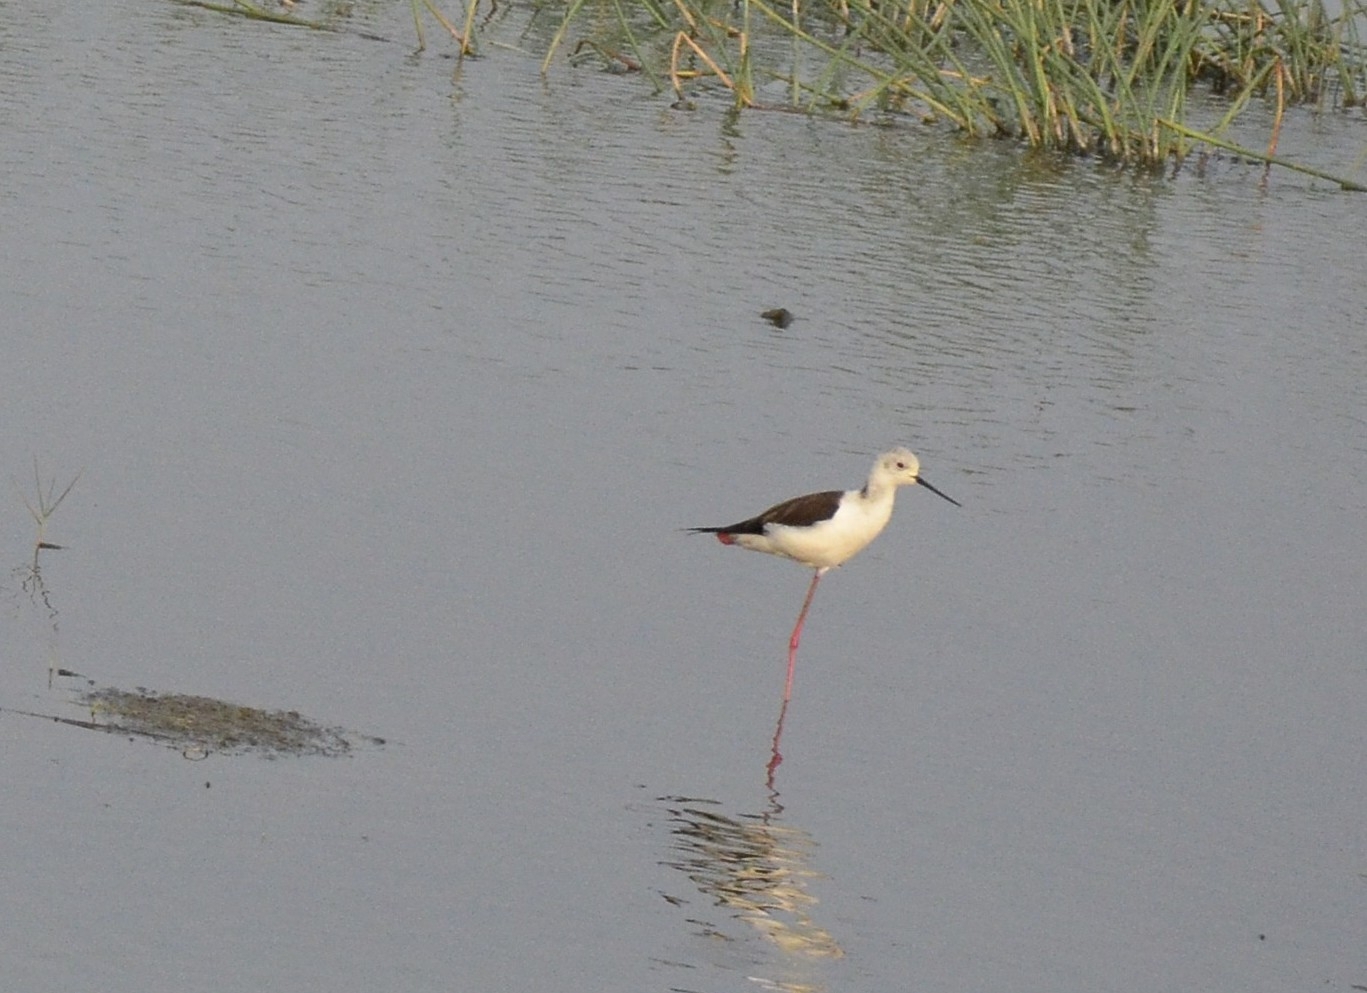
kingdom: Animalia
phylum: Chordata
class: Aves
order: Charadriiformes
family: Recurvirostridae
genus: Himantopus
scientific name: Himantopus himantopus
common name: Black-winged stilt
